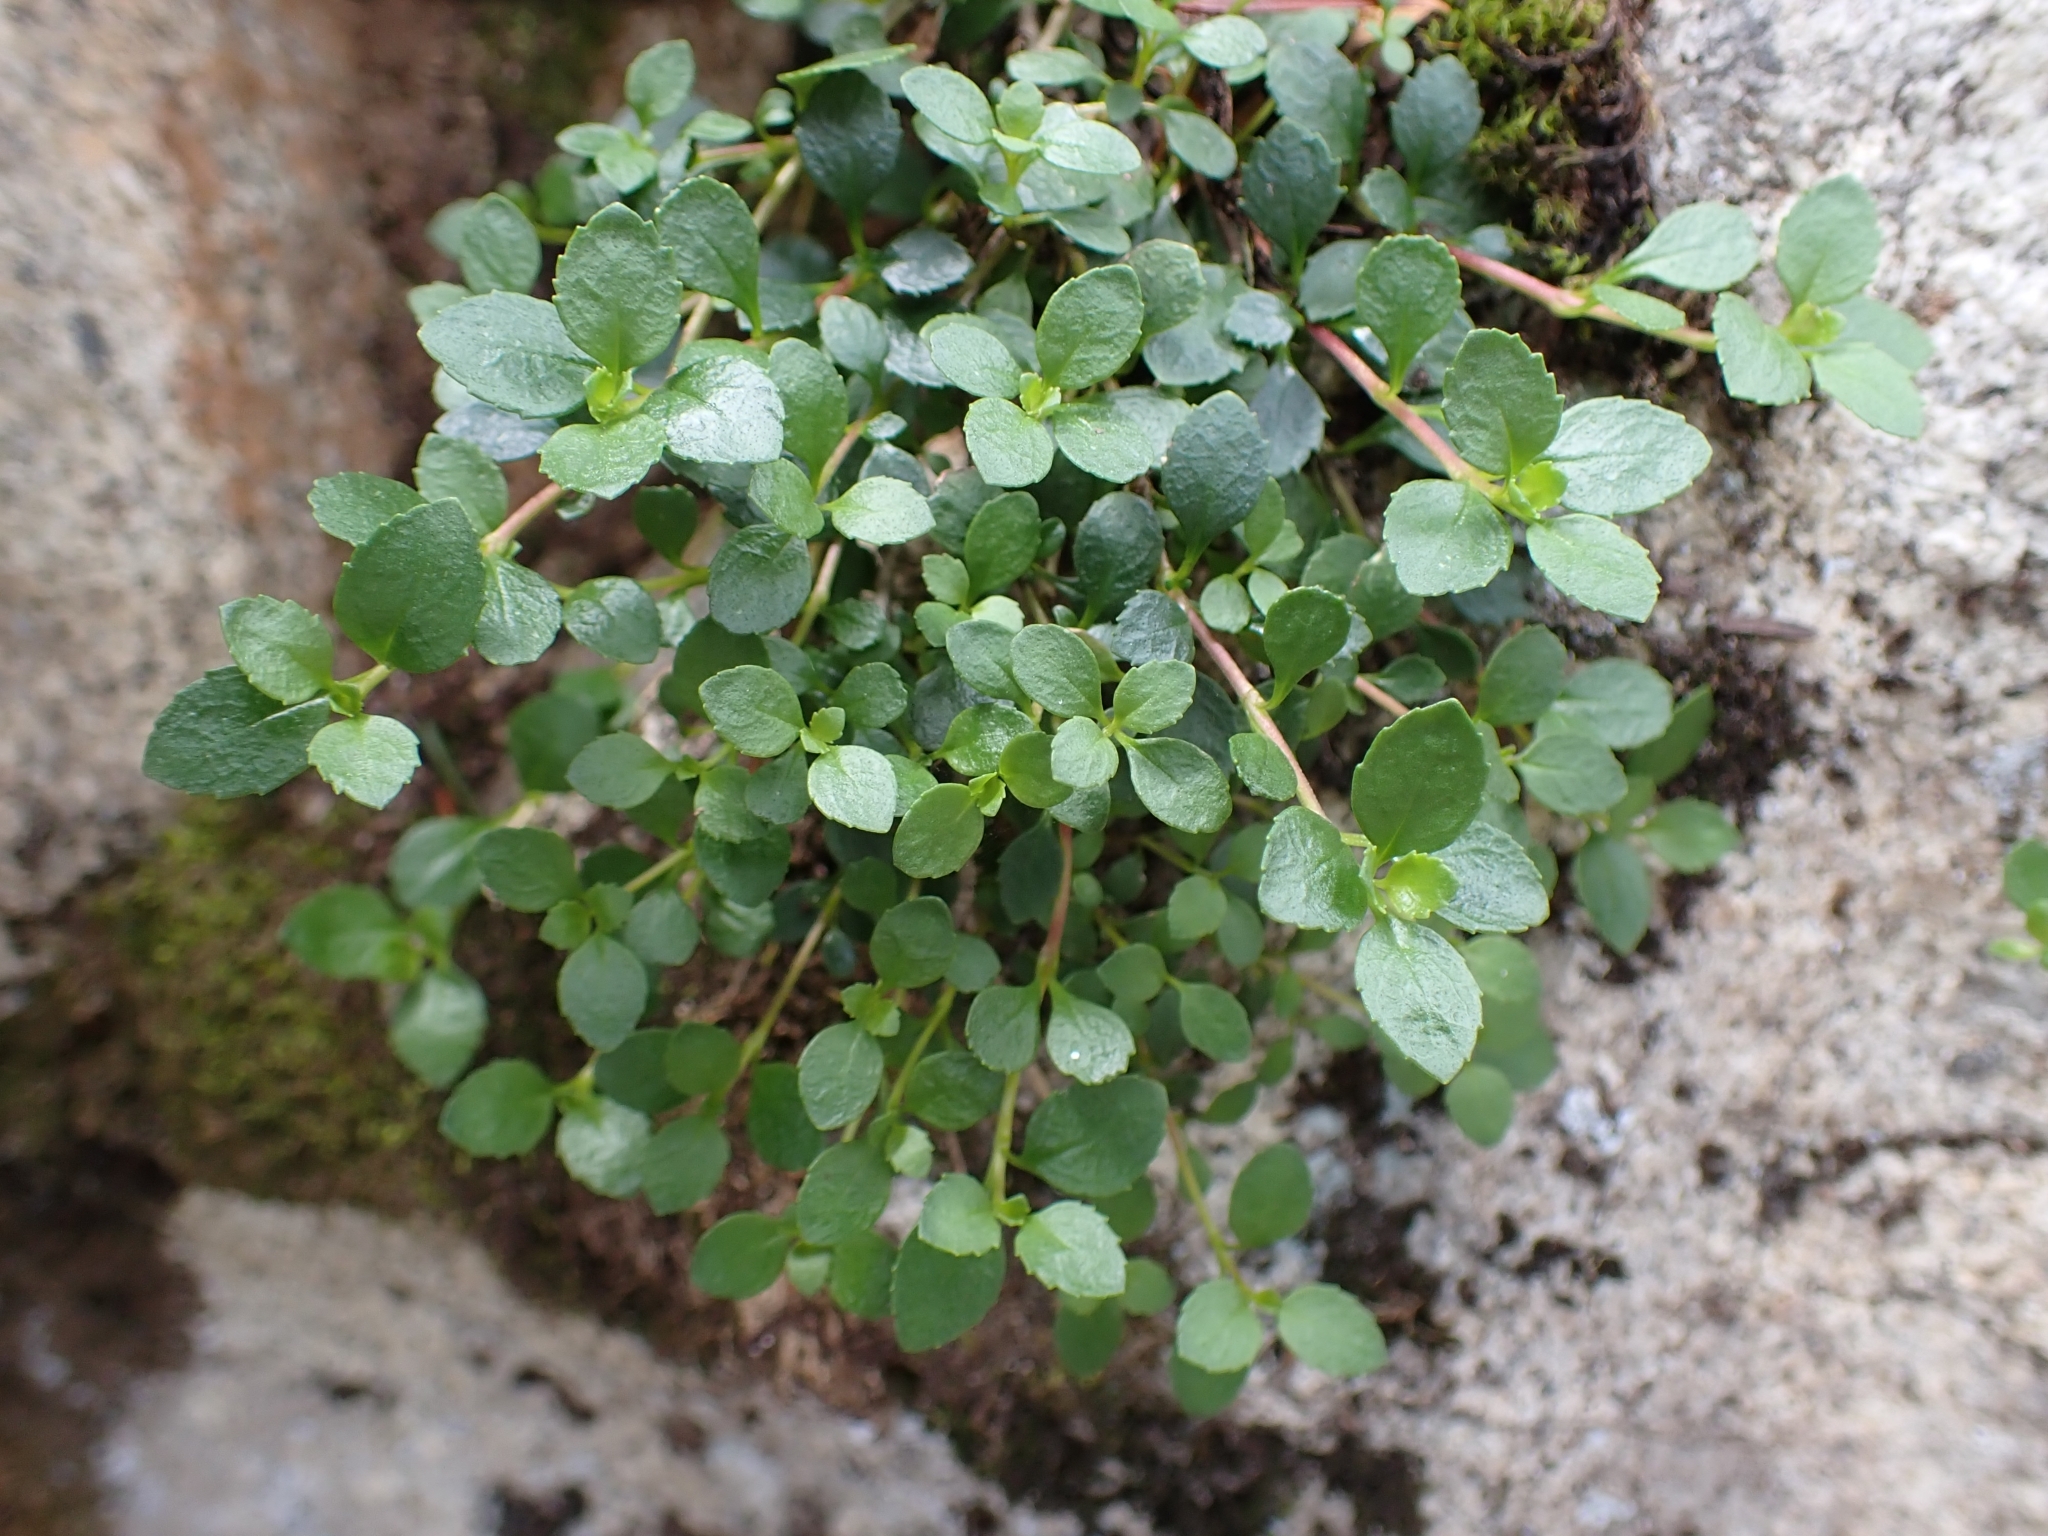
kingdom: Plantae
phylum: Tracheophyta
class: Magnoliopsida
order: Dipsacales
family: Caprifoliaceae
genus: Linnaea
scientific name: Linnaea borealis
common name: Twinflower
